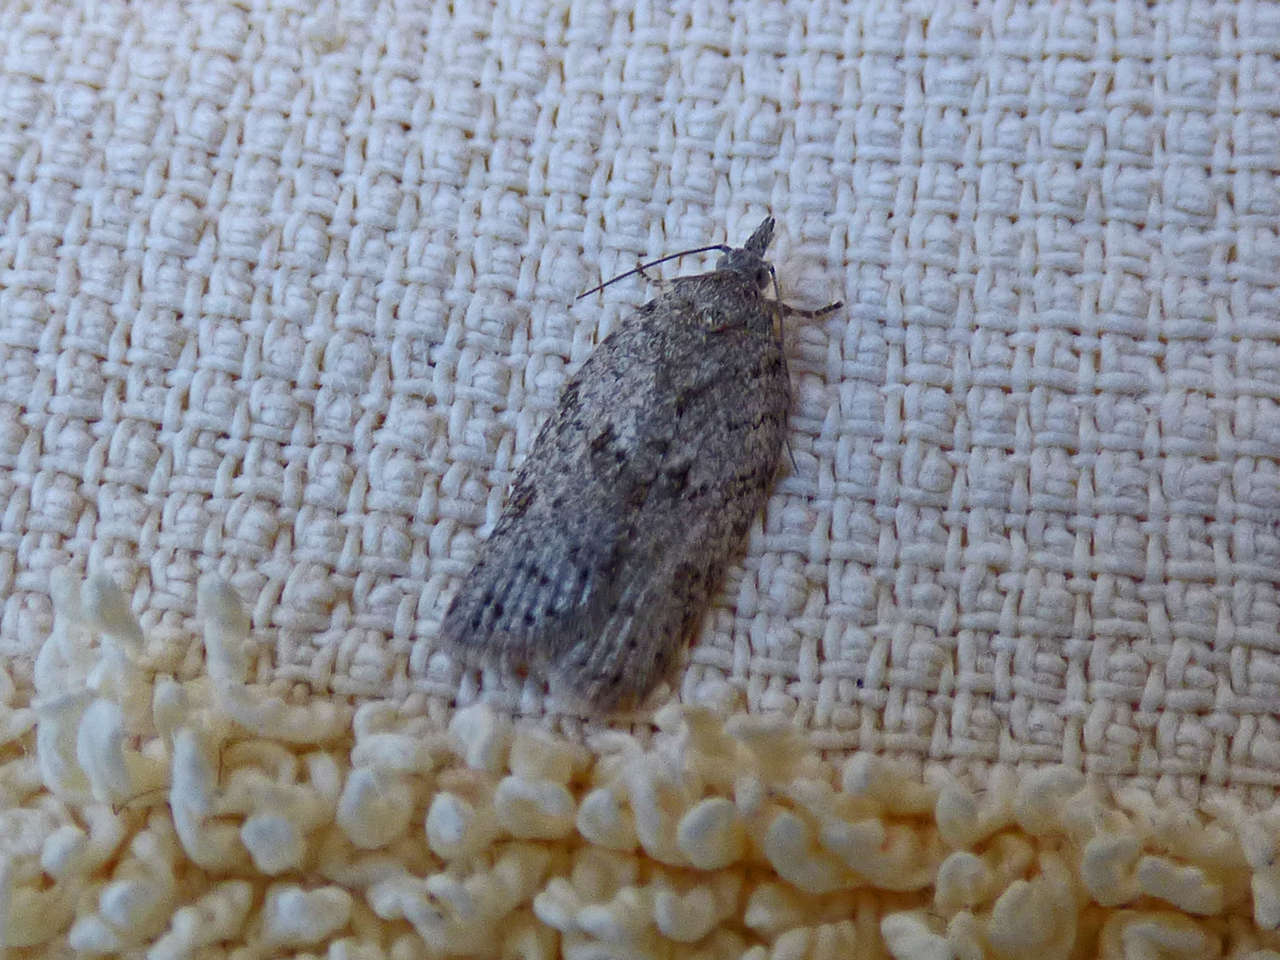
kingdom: Animalia
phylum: Arthropoda
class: Insecta
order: Lepidoptera
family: Tortricidae
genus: Isotenes
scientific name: Isotenes miserana
